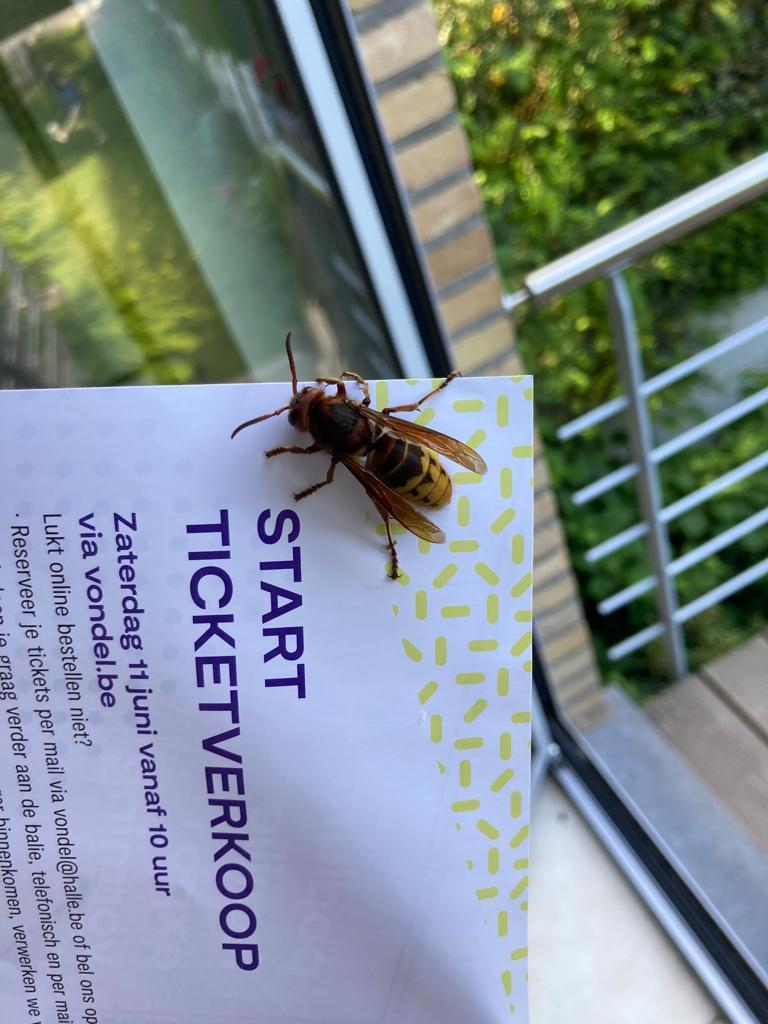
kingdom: Animalia
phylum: Arthropoda
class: Insecta
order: Hymenoptera
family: Vespidae
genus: Vespa
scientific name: Vespa crabro
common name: Hornet
